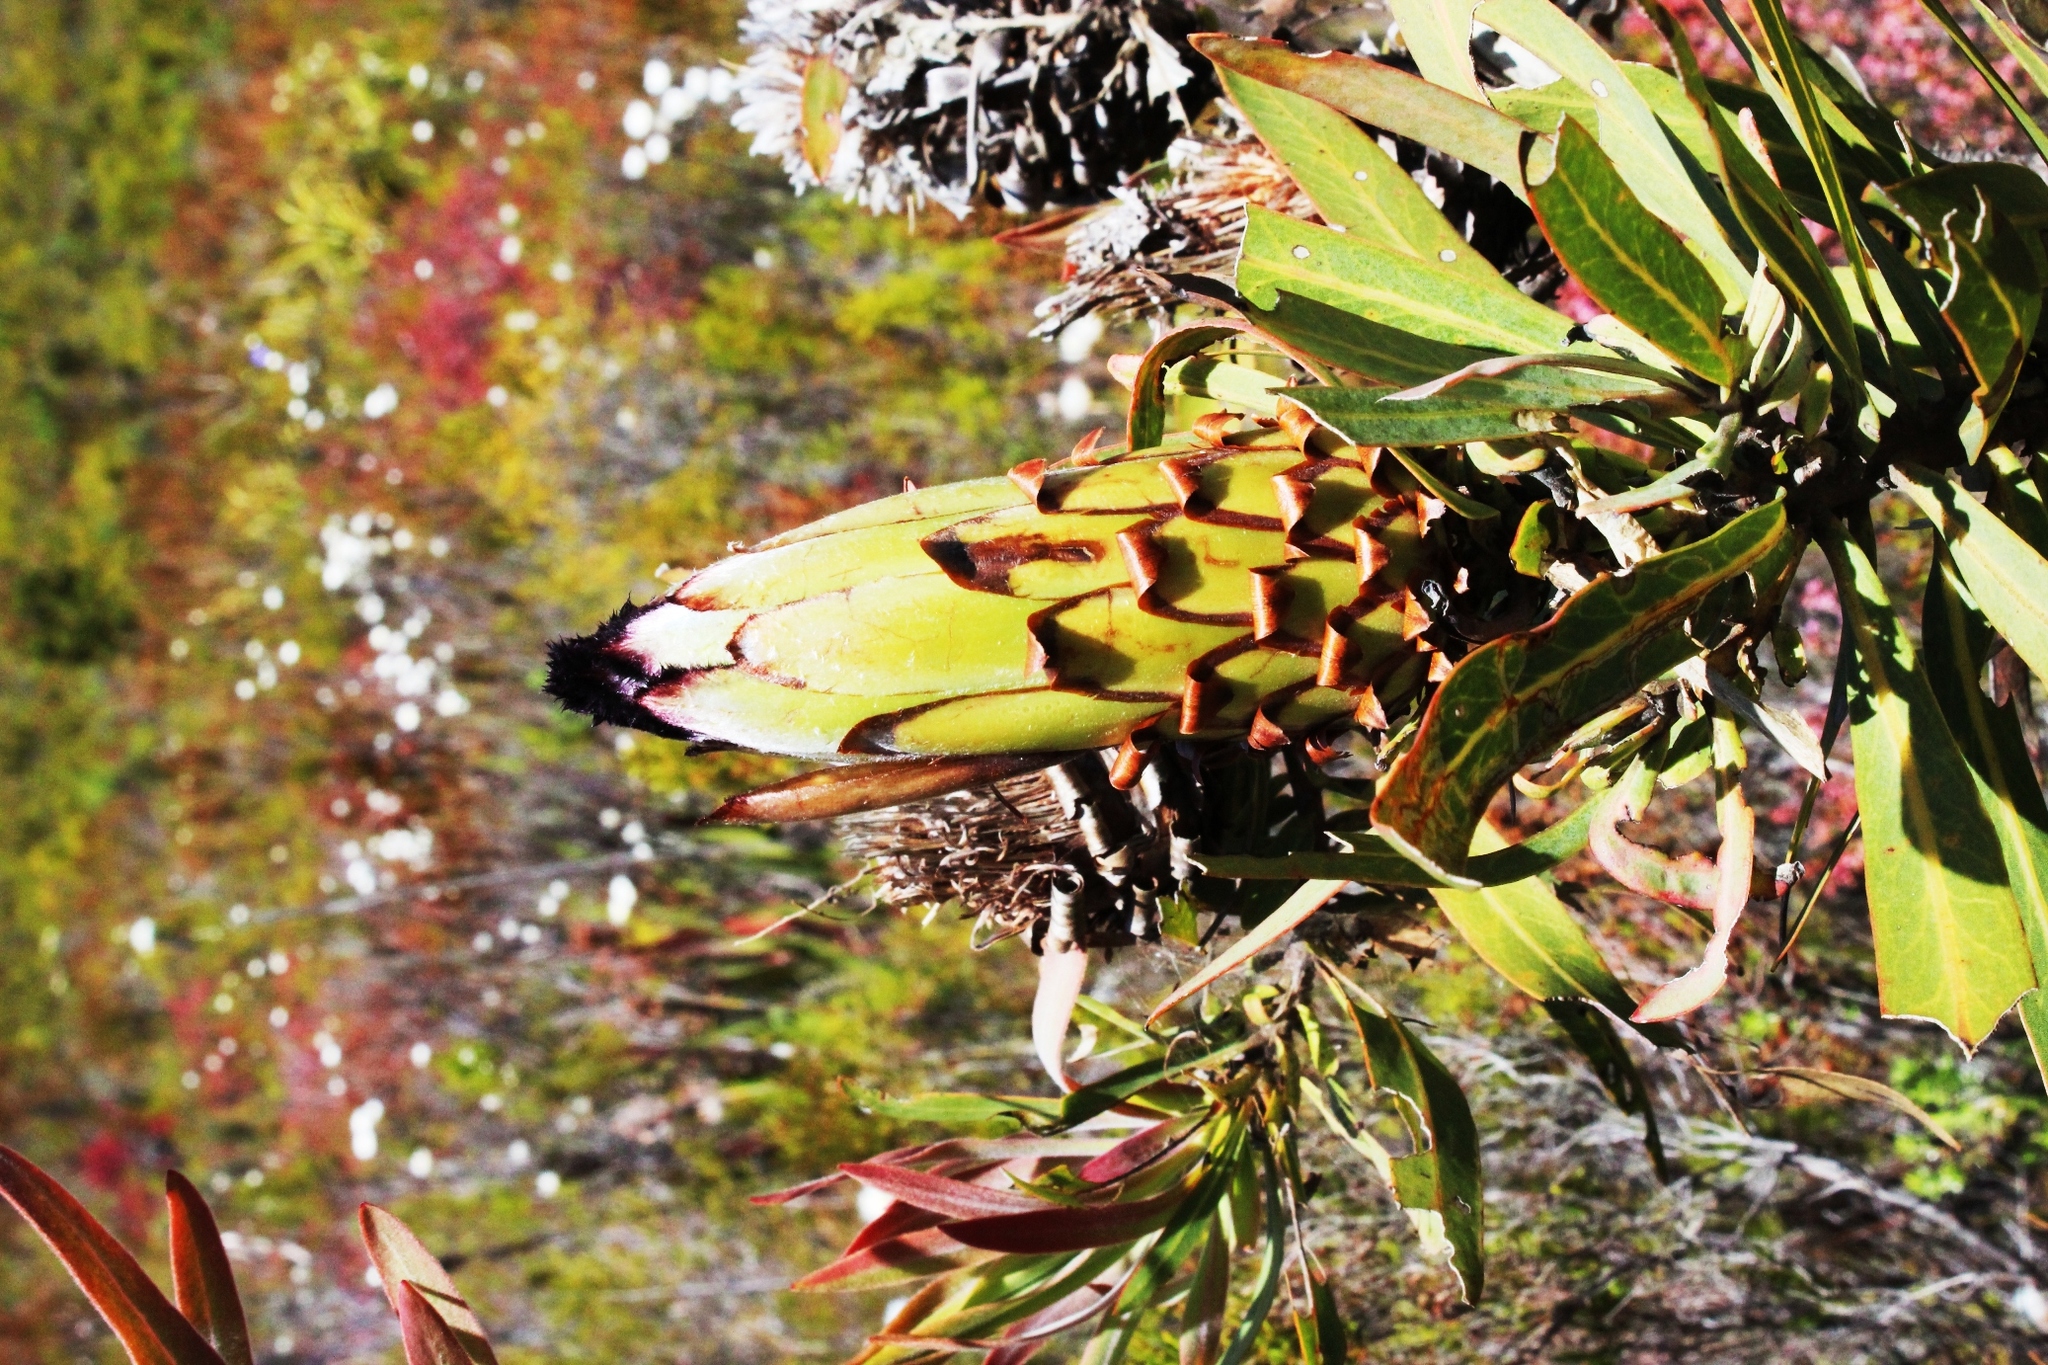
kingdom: Plantae
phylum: Tracheophyta
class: Magnoliopsida
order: Proteales
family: Proteaceae
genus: Protea
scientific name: Protea neriifolia
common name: Blue sugarbush
